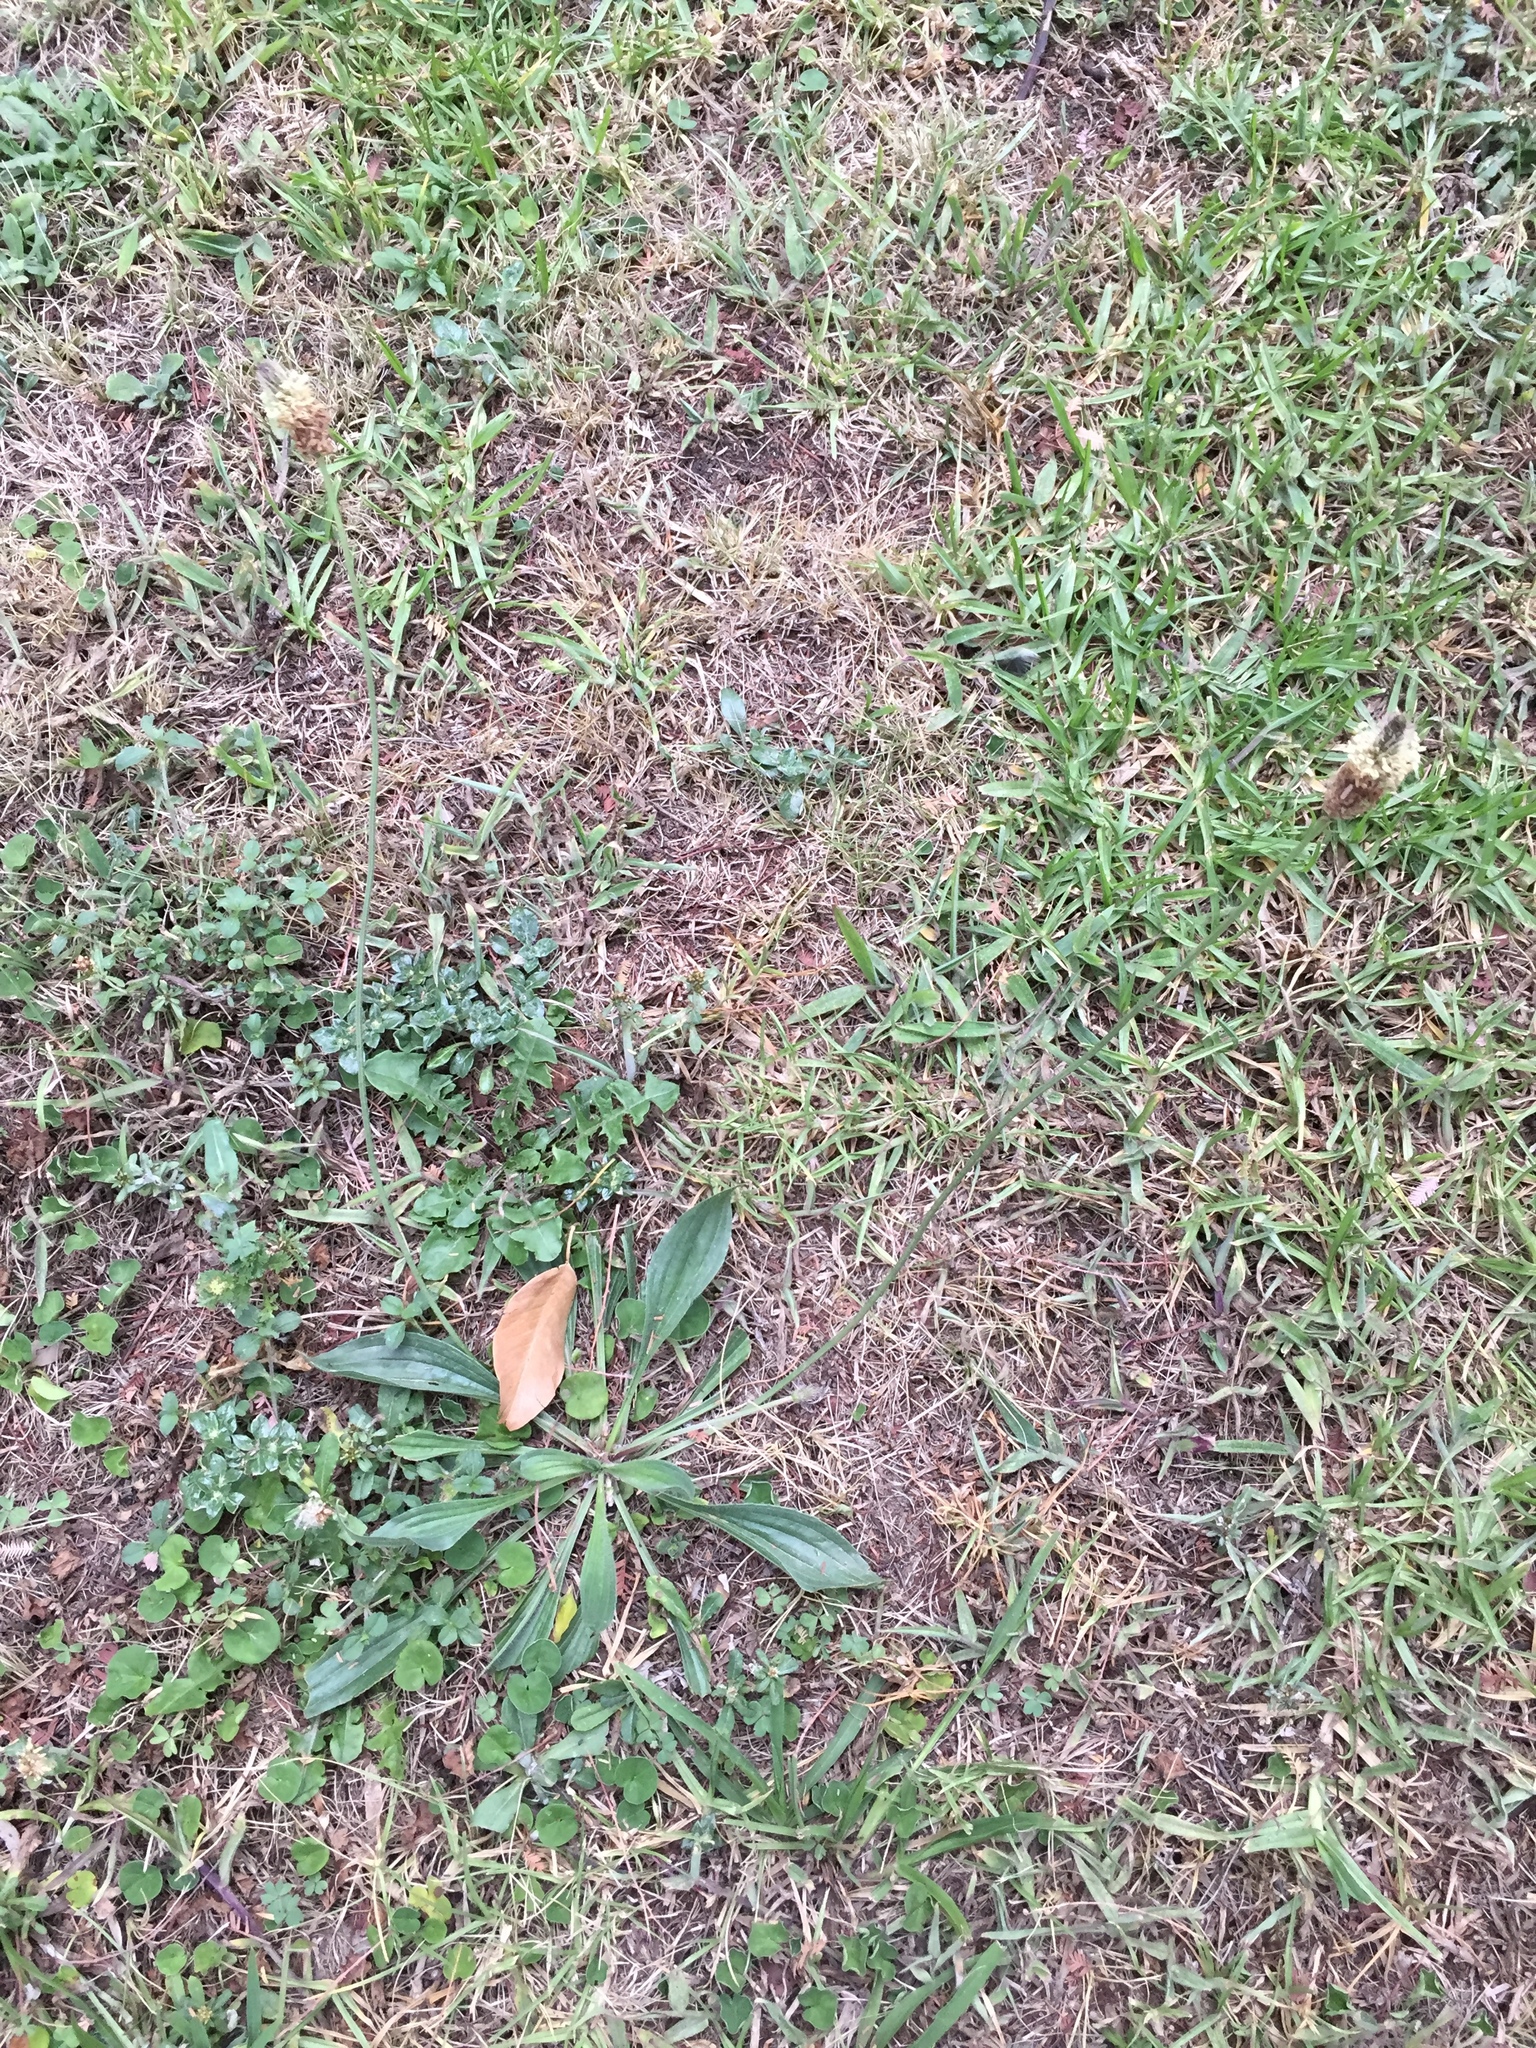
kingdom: Plantae
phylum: Tracheophyta
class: Magnoliopsida
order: Lamiales
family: Plantaginaceae
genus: Plantago
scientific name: Plantago lanceolata
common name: Ribwort plantain
